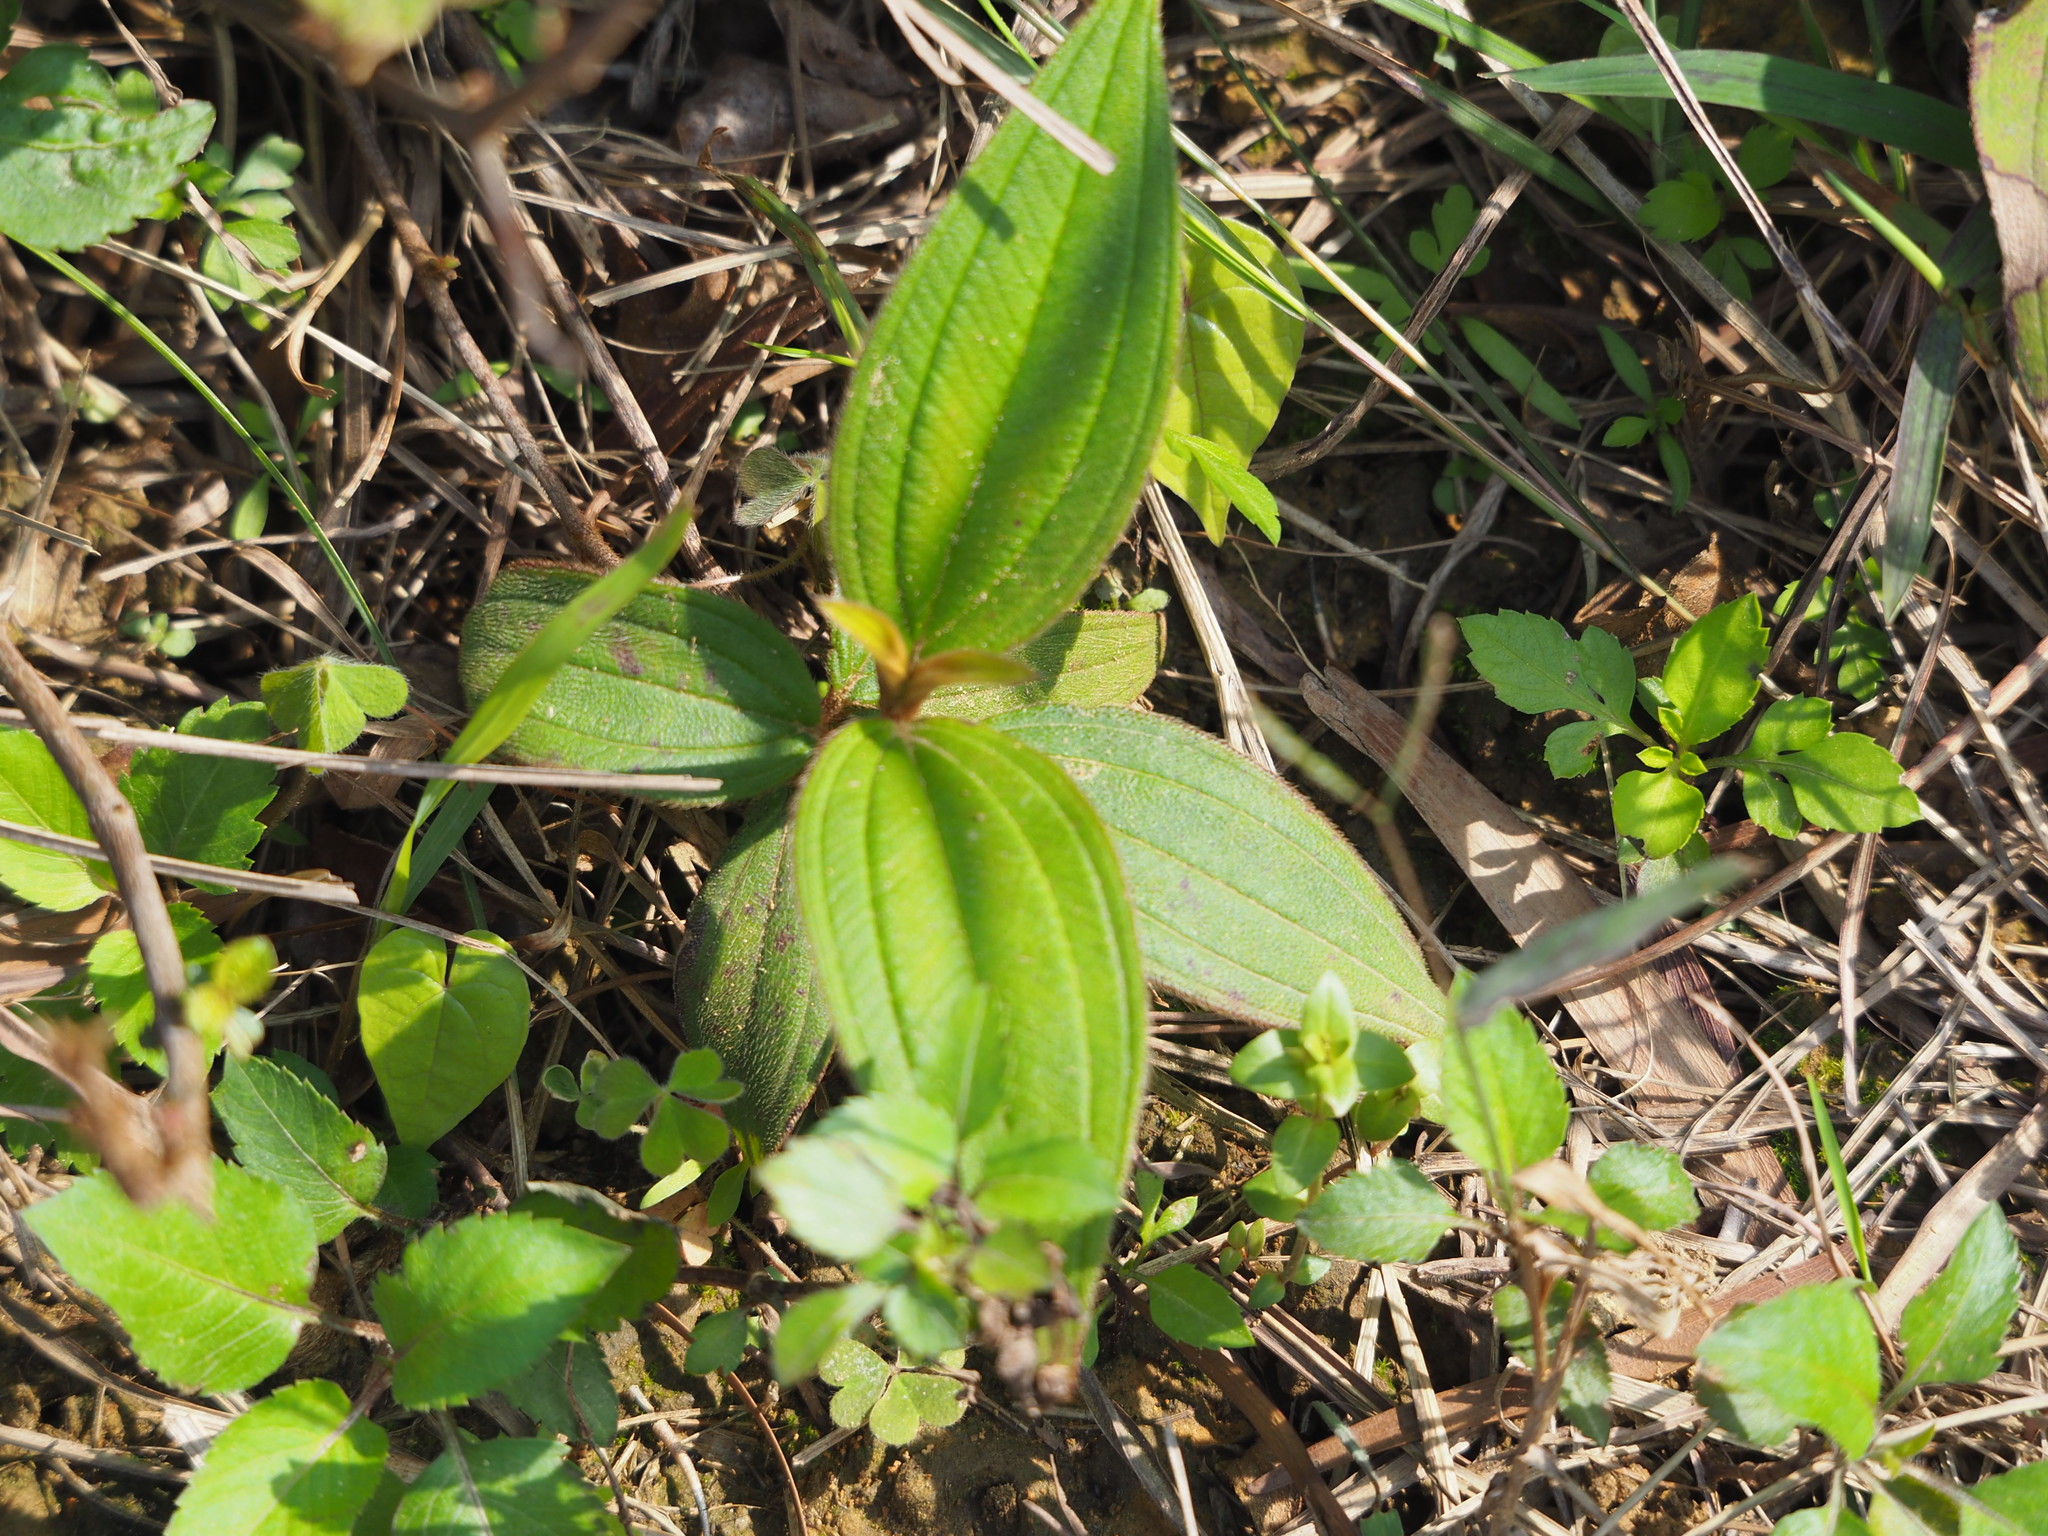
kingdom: Plantae
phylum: Tracheophyta
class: Magnoliopsida
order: Myrtales
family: Melastomataceae
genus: Melastoma
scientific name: Melastoma malabathricum
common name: Indian-rhododendron
